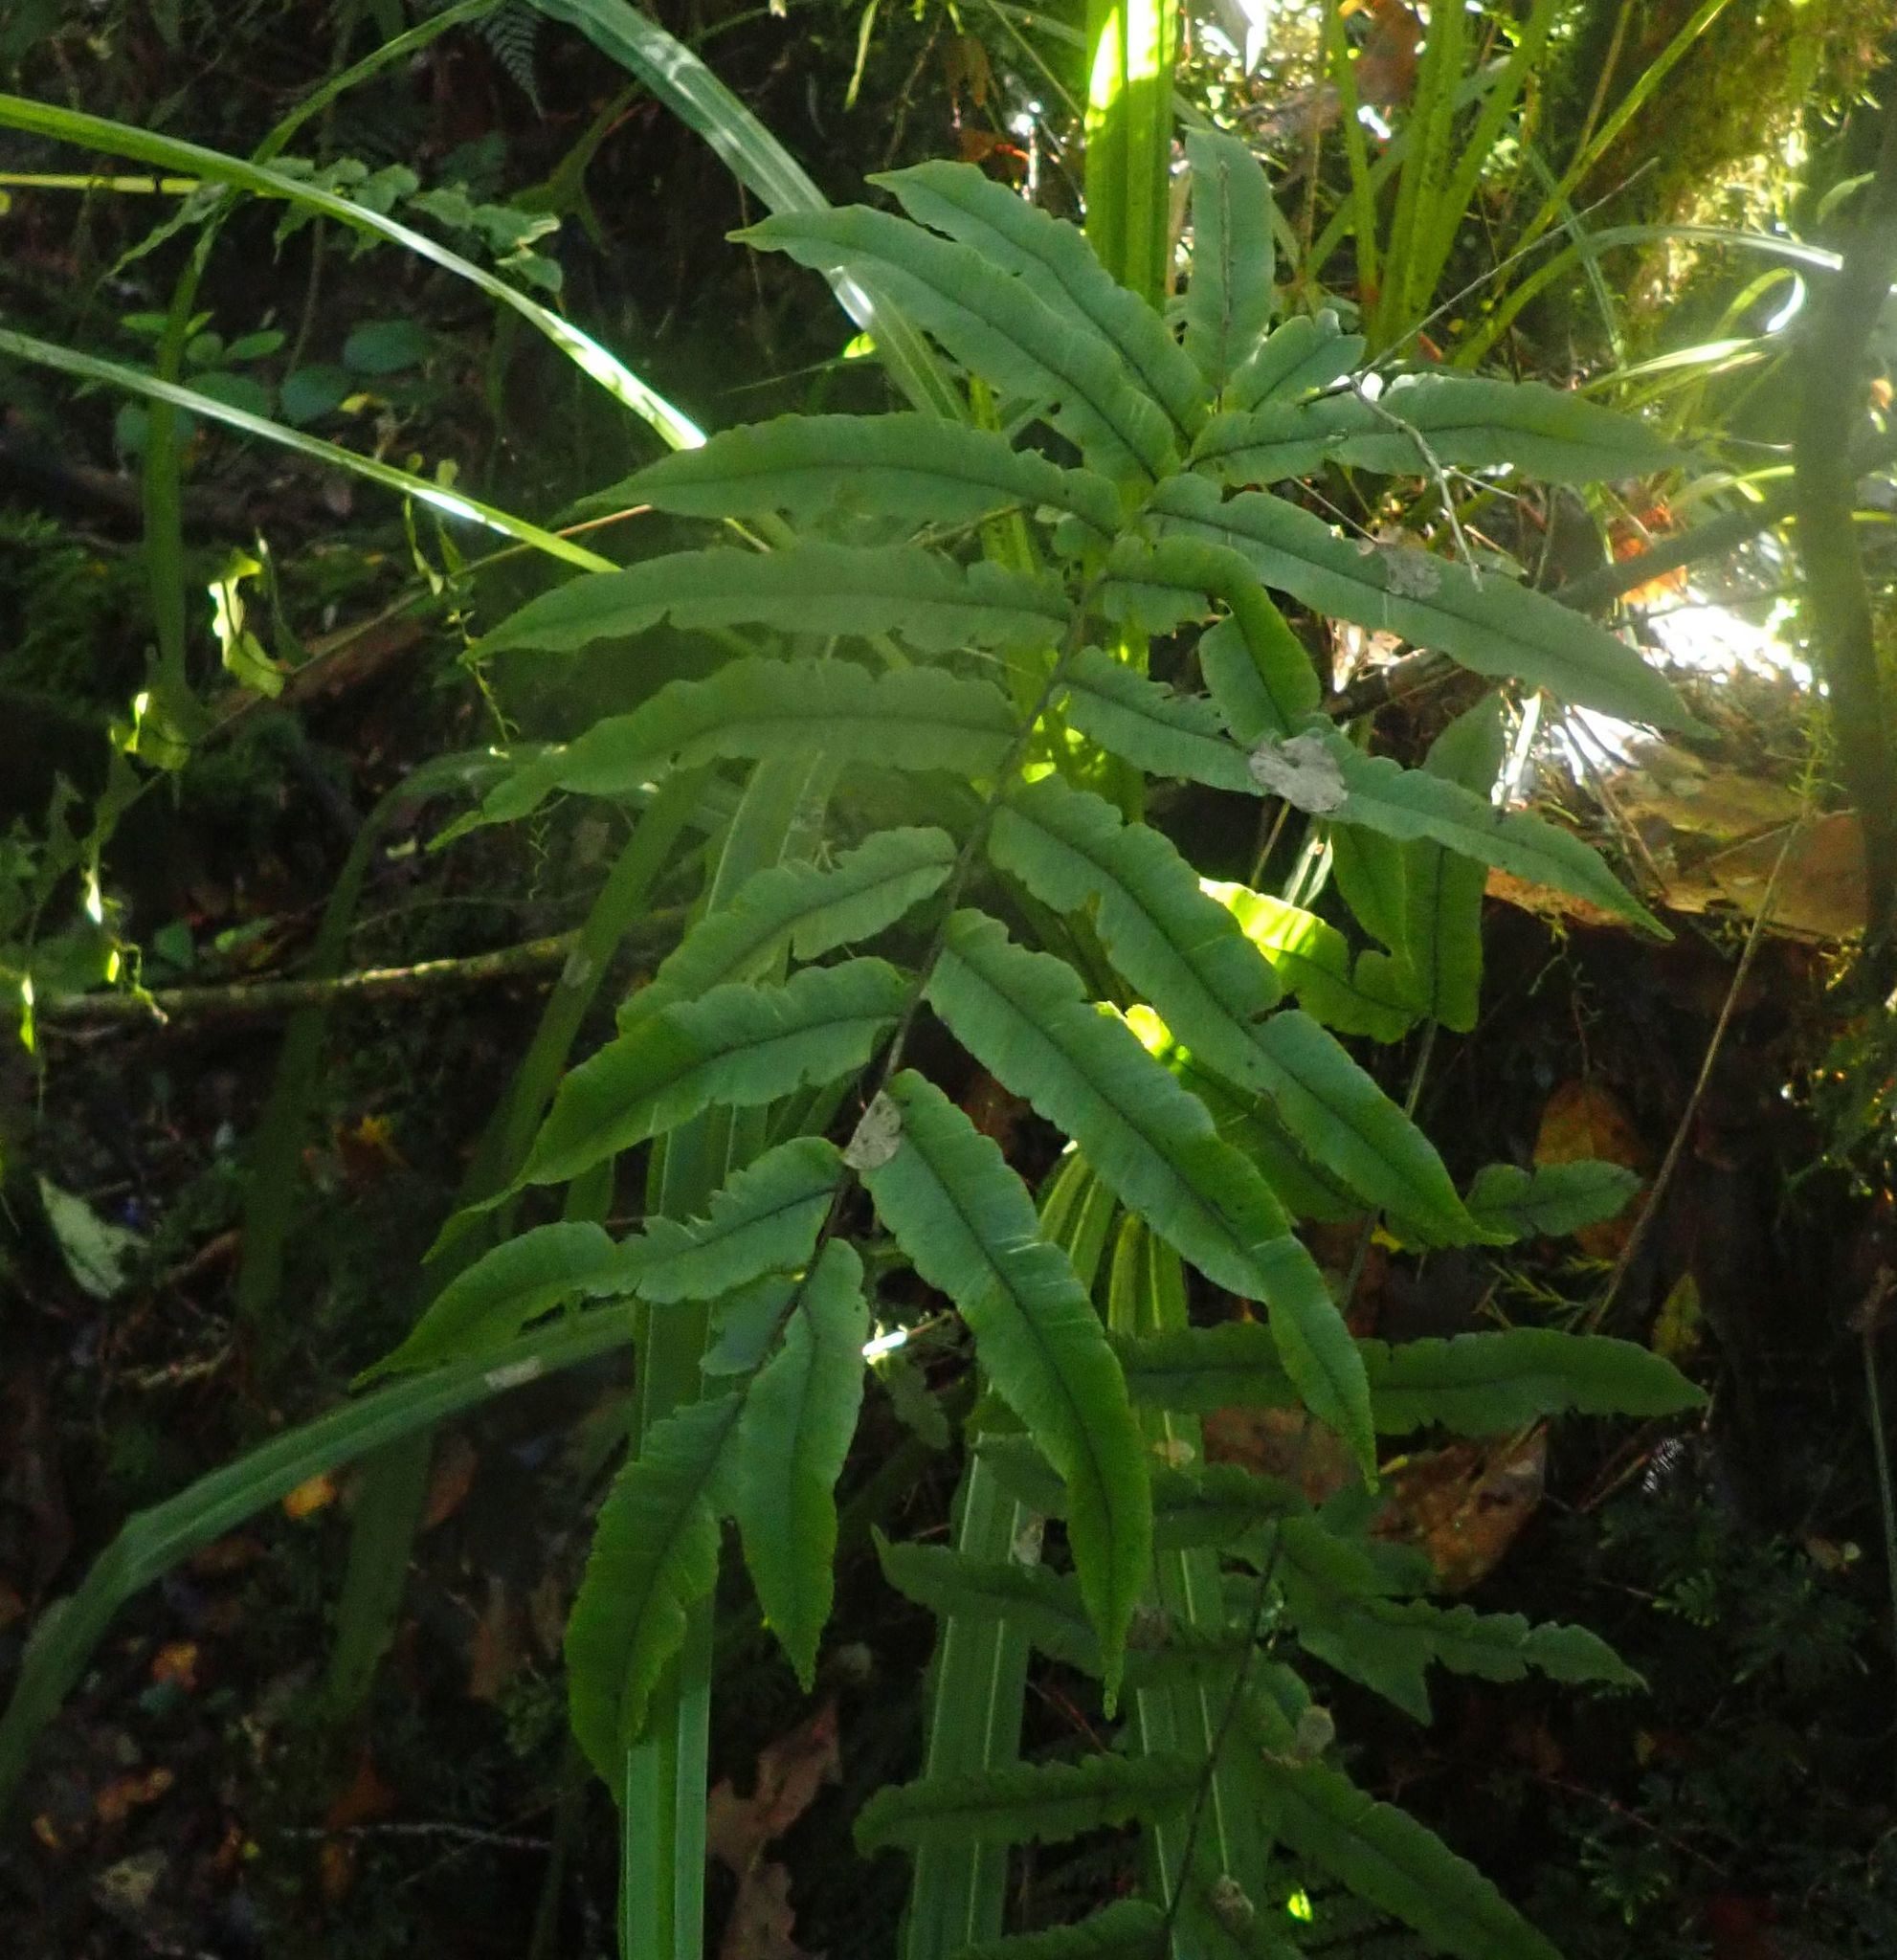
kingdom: Plantae
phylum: Tracheophyta
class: Polypodiopsida
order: Polypodiales
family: Blechnaceae
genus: Parablechnum
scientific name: Parablechnum montanum
